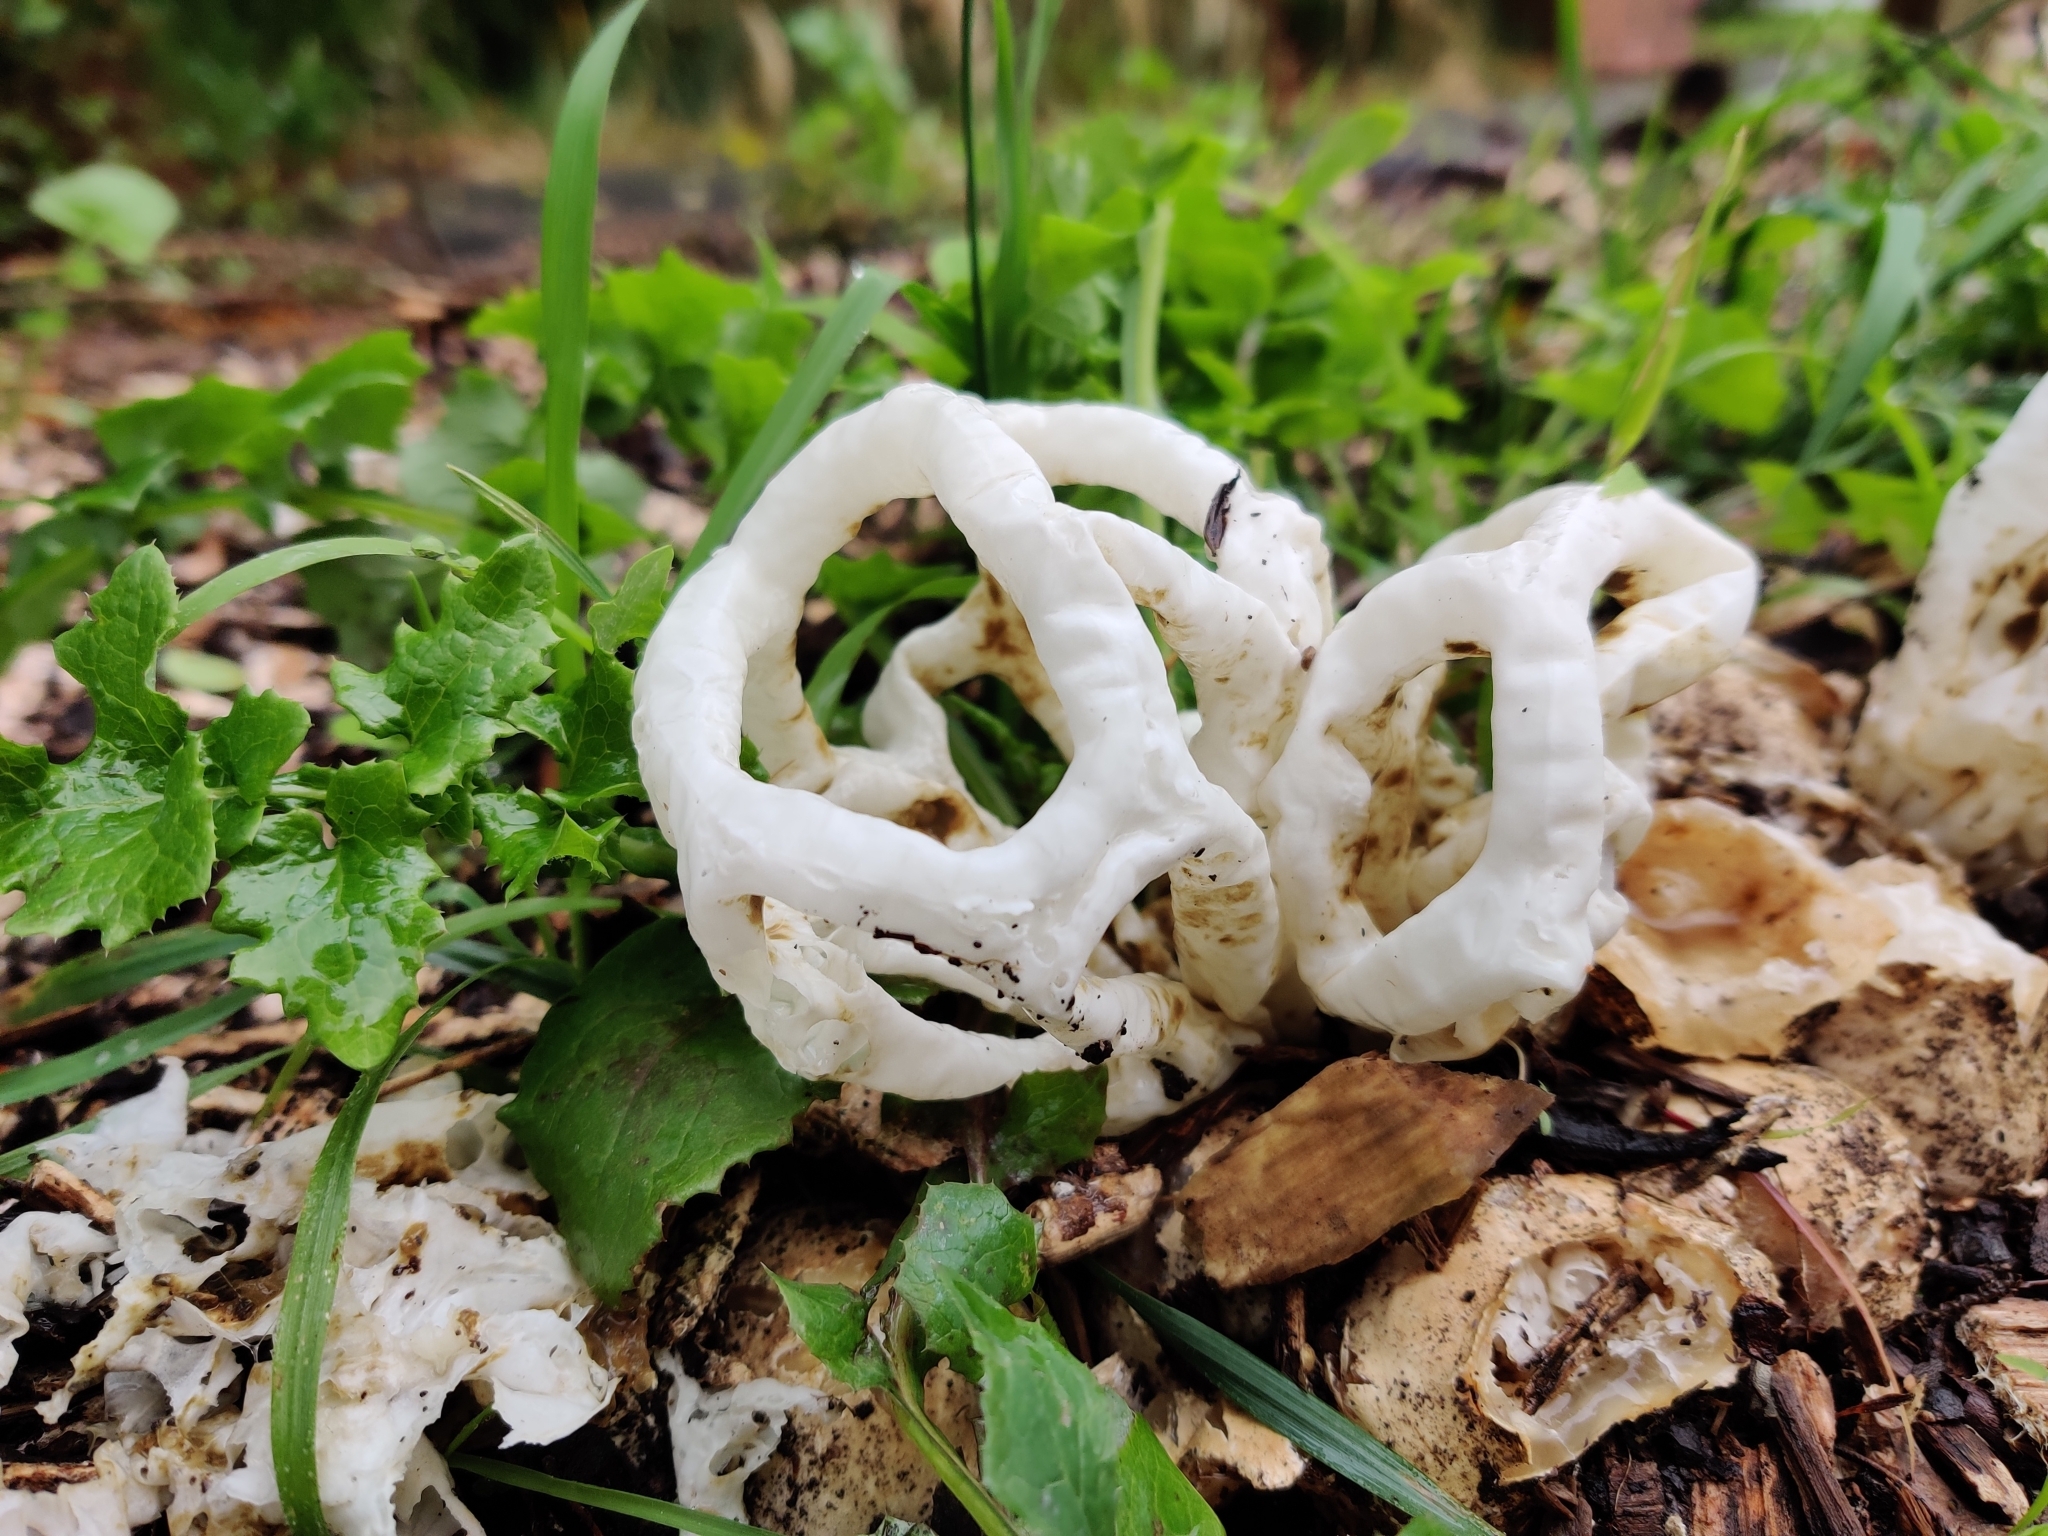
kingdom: Fungi
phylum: Basidiomycota
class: Agaricomycetes
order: Phallales
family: Phallaceae
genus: Ileodictyon
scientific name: Ileodictyon cibarium
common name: Basket fungus
